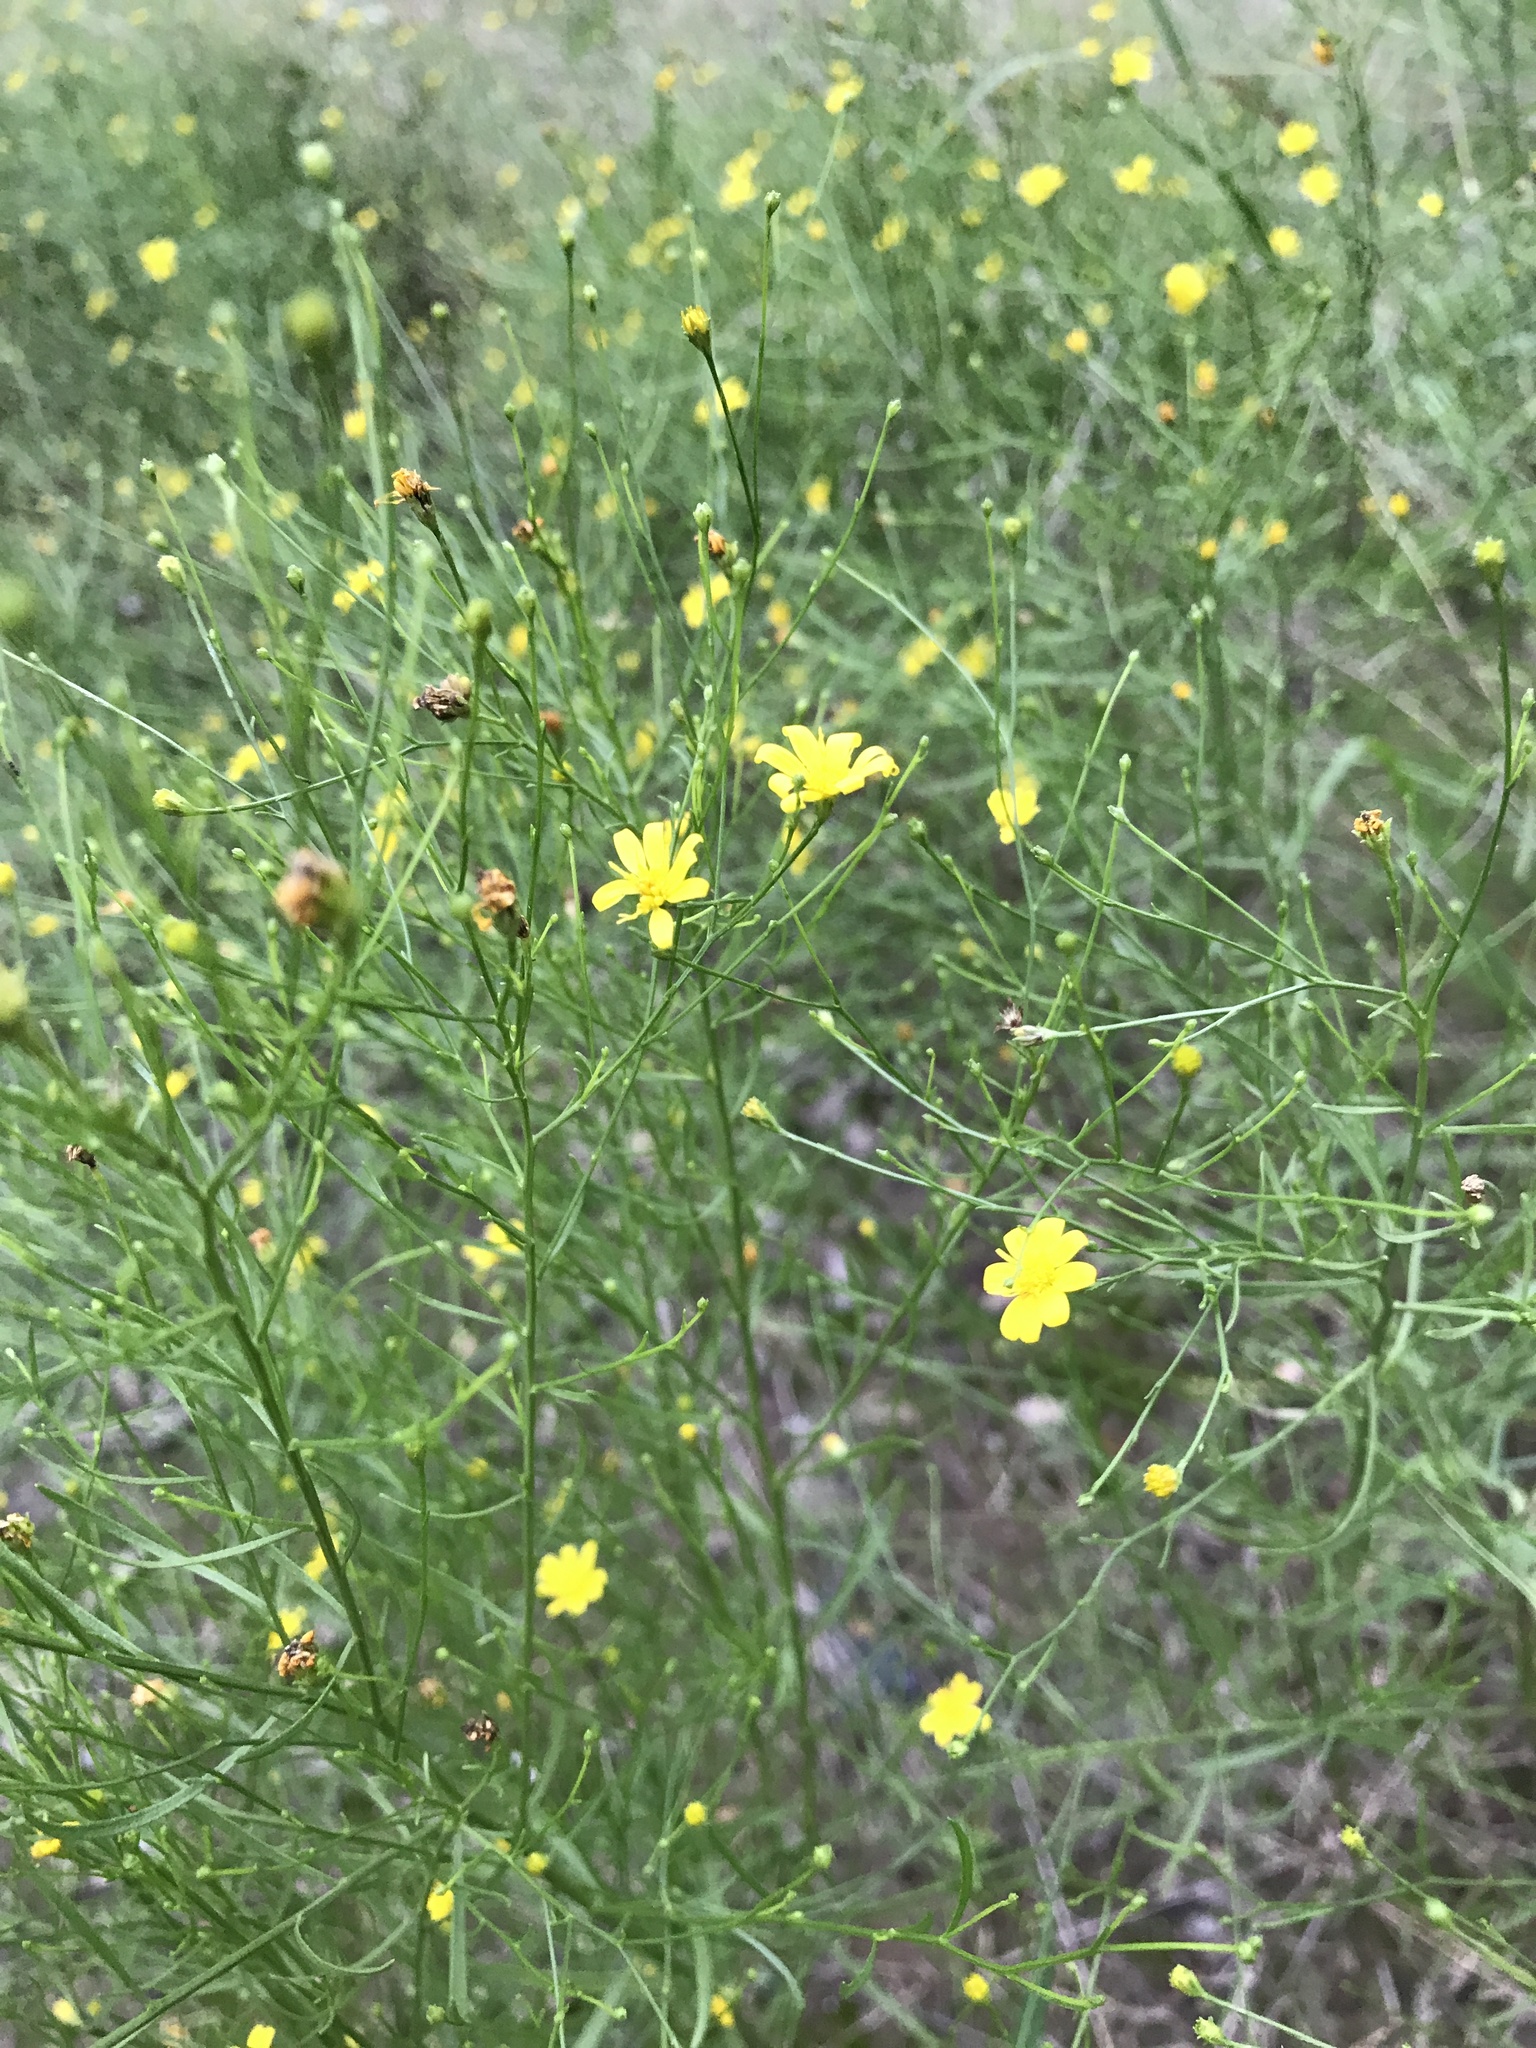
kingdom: Plantae
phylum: Tracheophyta
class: Magnoliopsida
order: Asterales
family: Asteraceae
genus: Gutierrezia
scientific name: Gutierrezia texana
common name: Texas snakeweed
